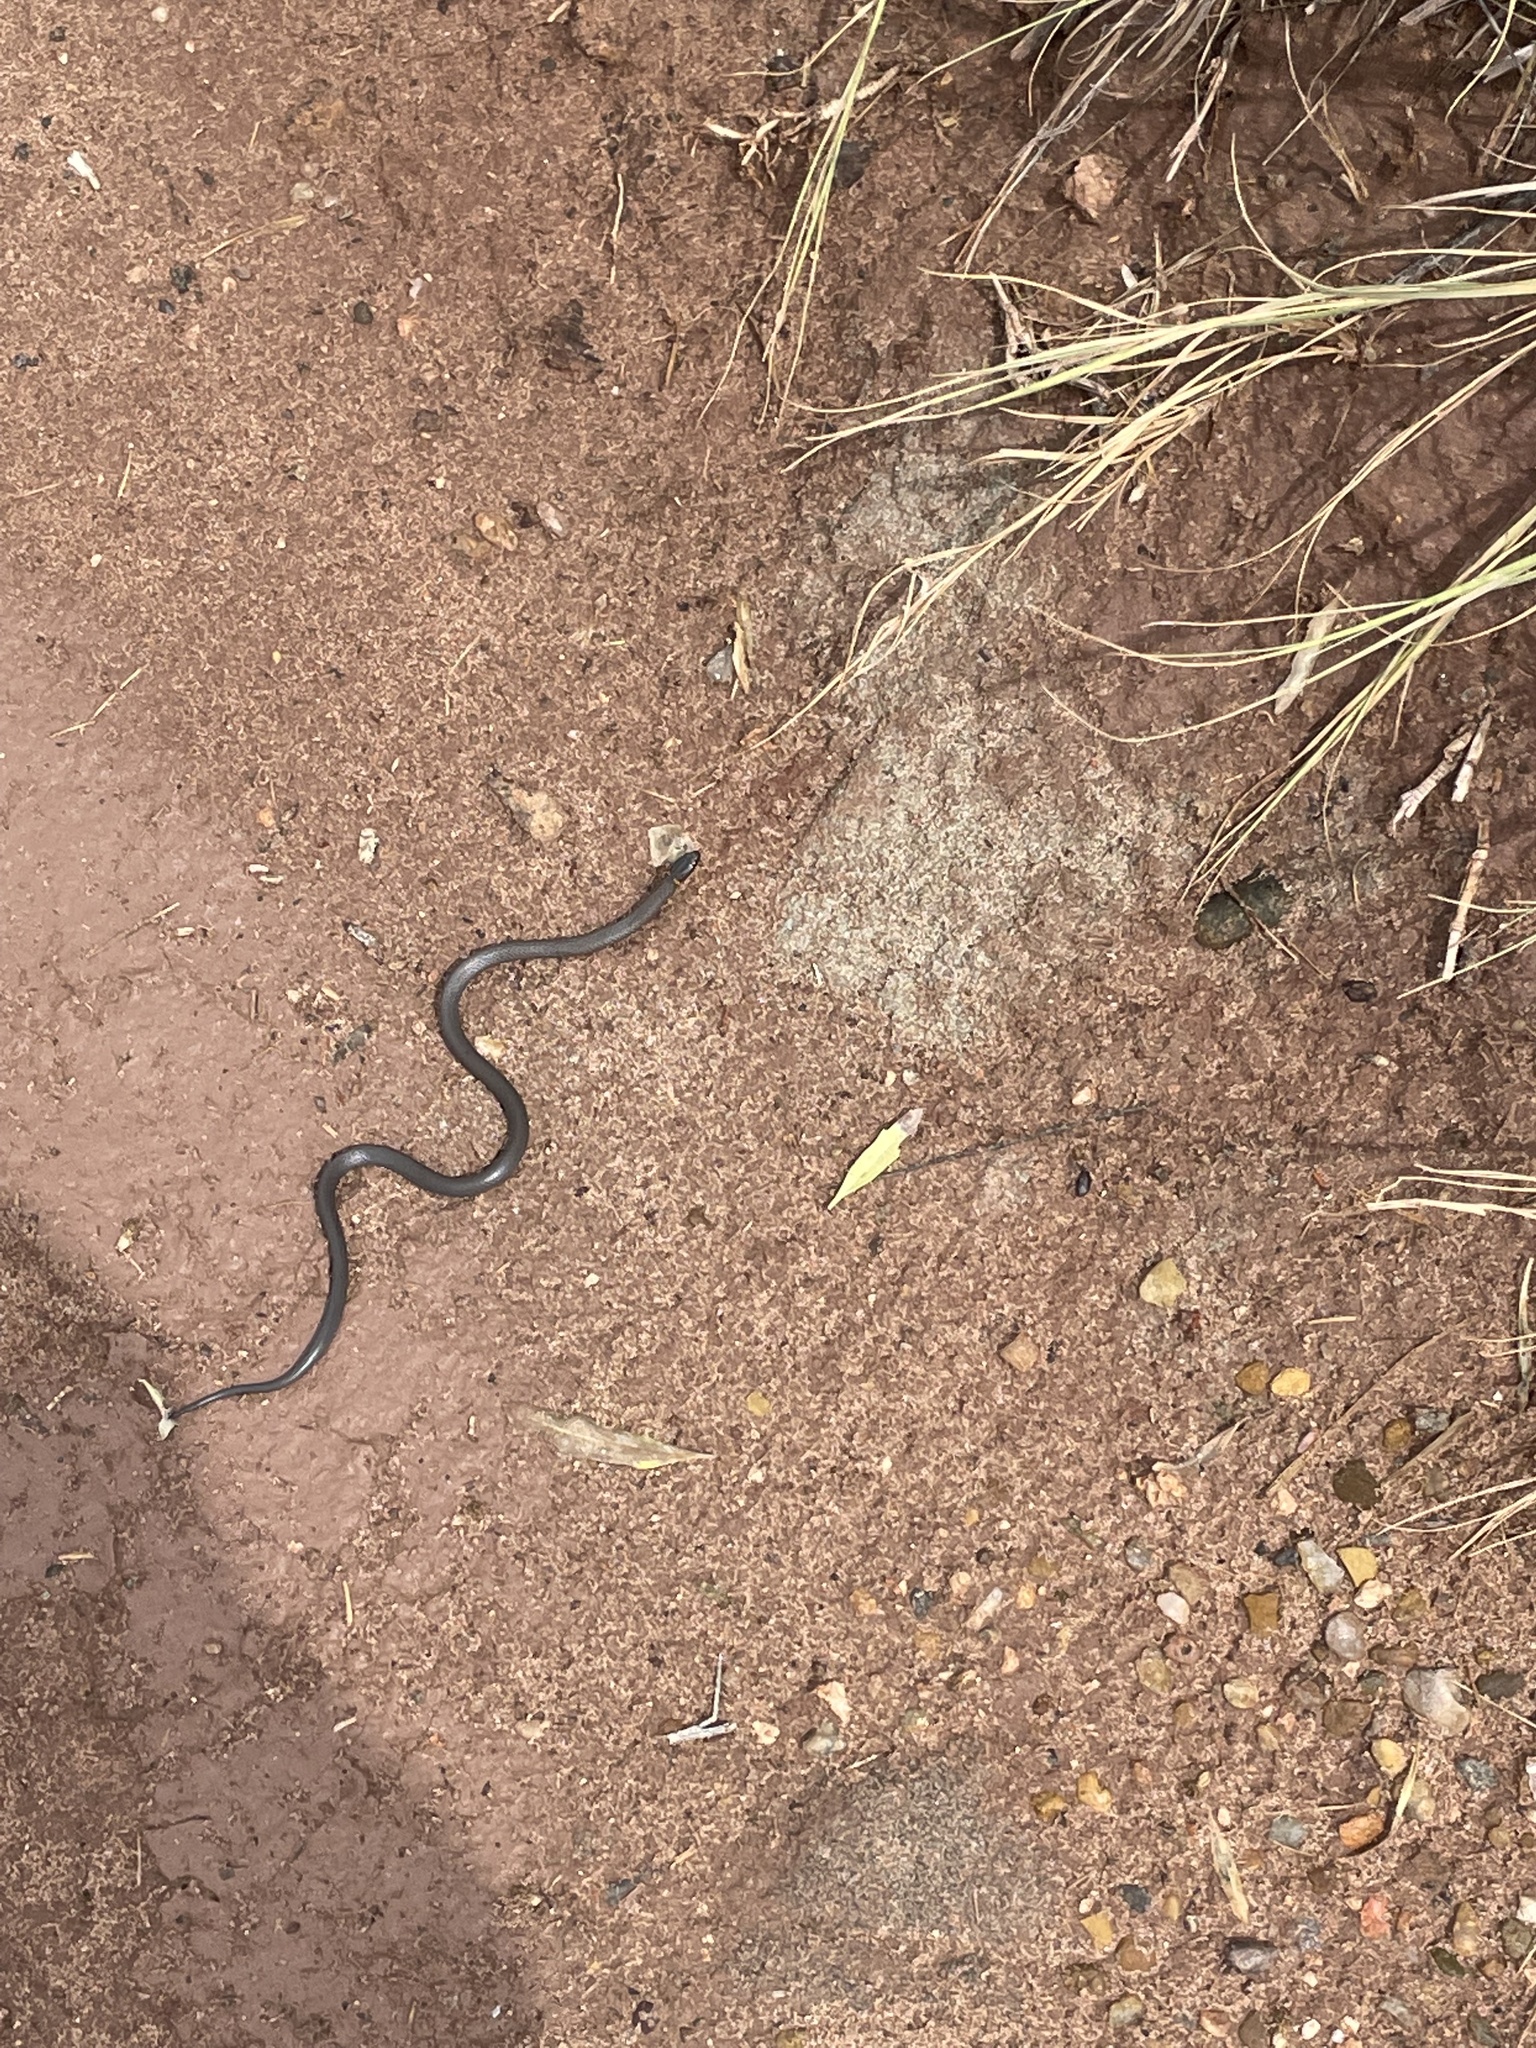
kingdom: Animalia
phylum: Chordata
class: Squamata
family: Colubridae
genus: Diadophis
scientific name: Diadophis punctatus
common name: Ringneck snake
